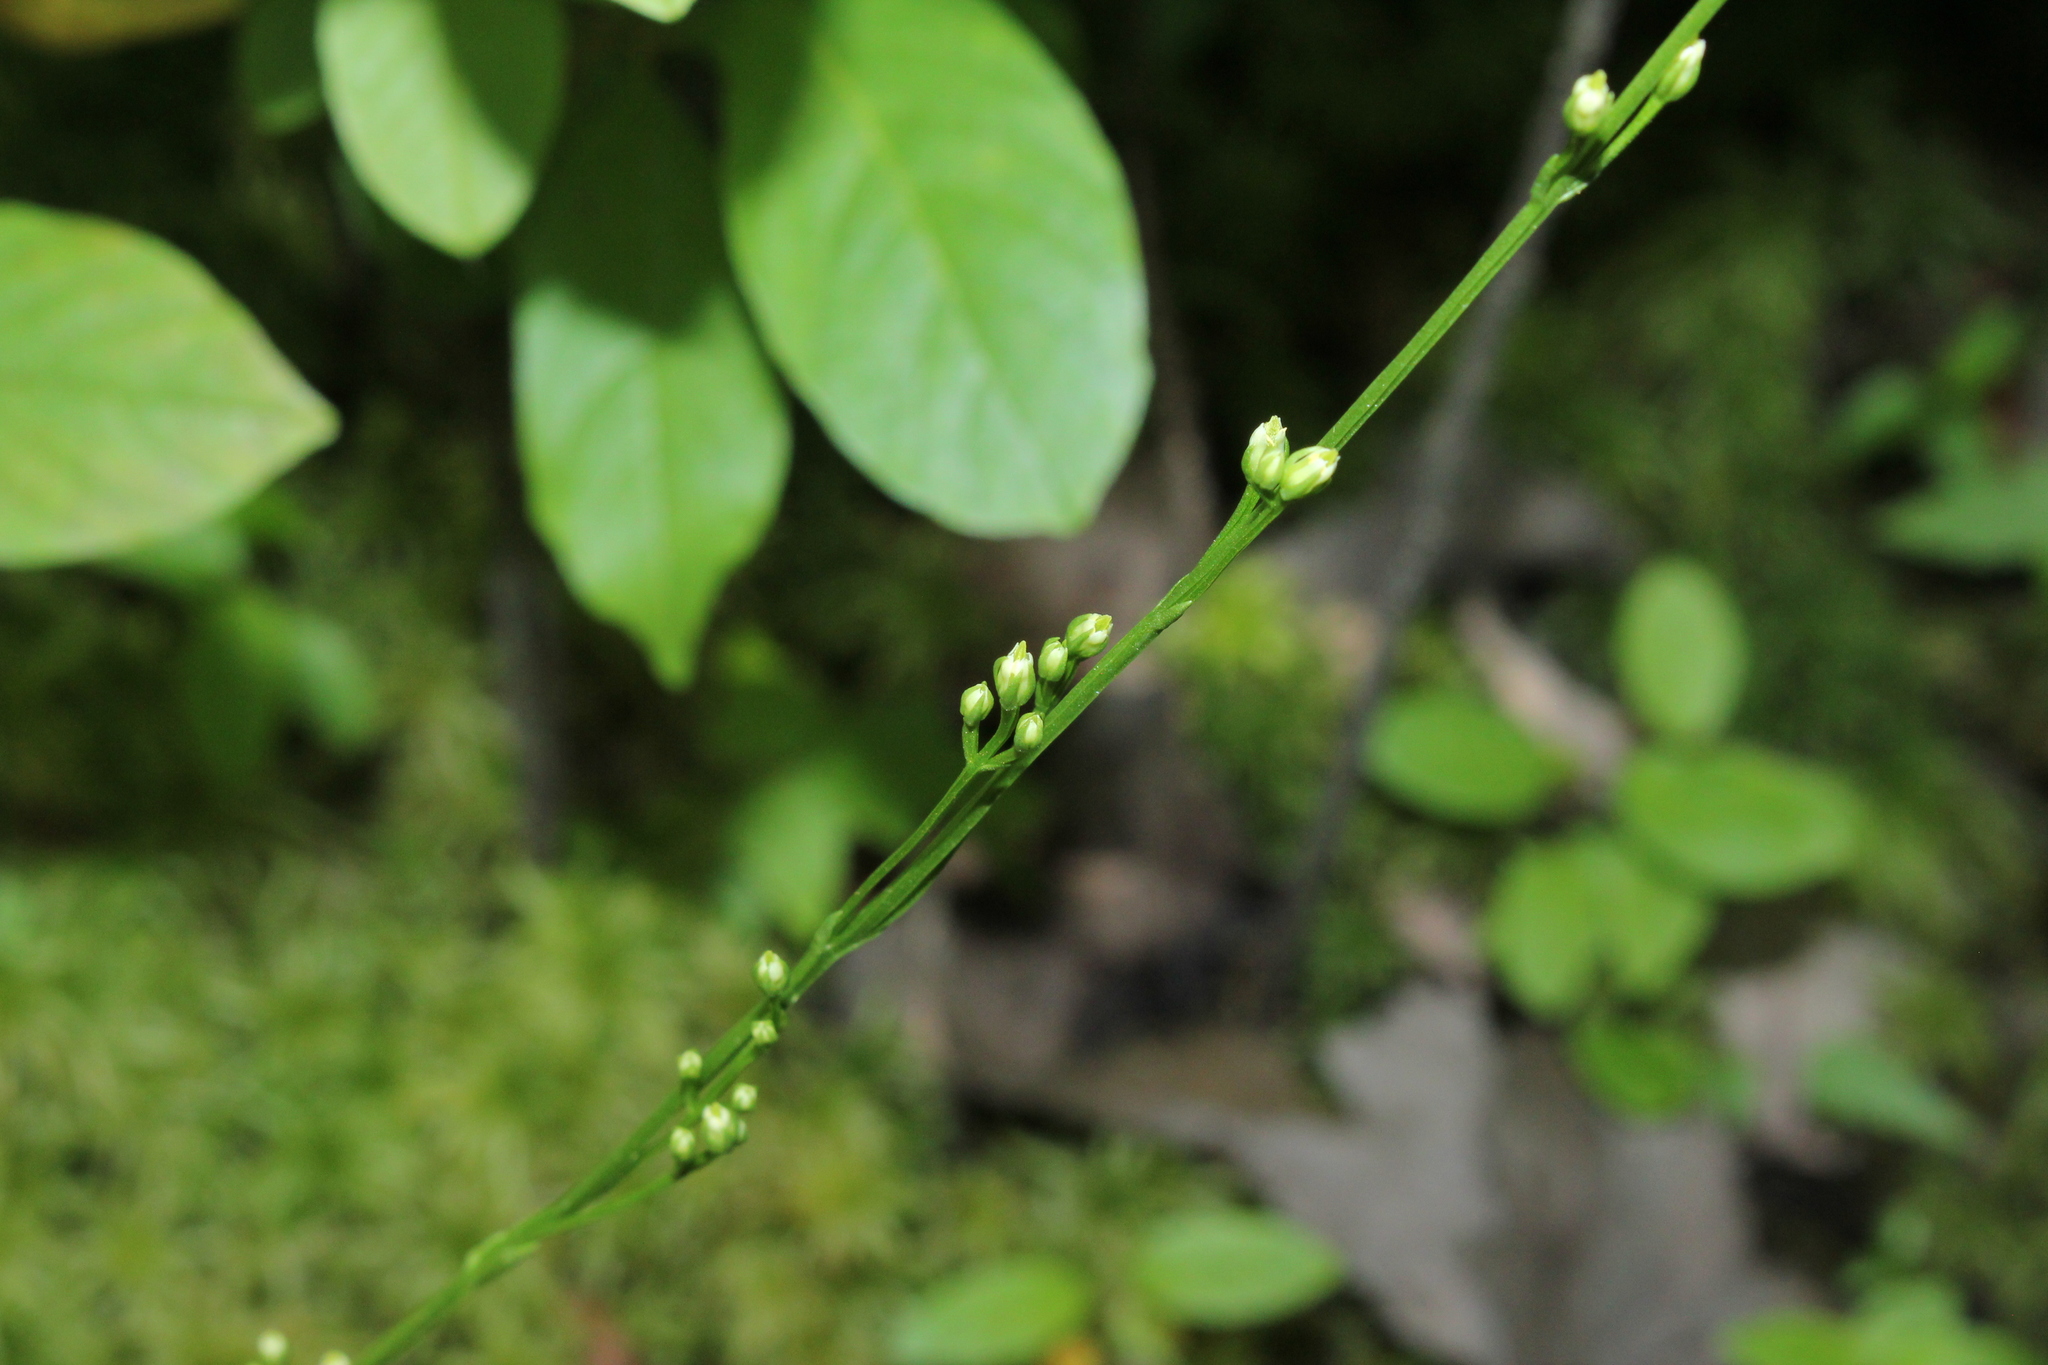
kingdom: Plantae
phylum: Tracheophyta
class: Magnoliopsida
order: Gentianales
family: Gentianaceae
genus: Bartonia
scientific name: Bartonia virginica
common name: Yellow bartonia
